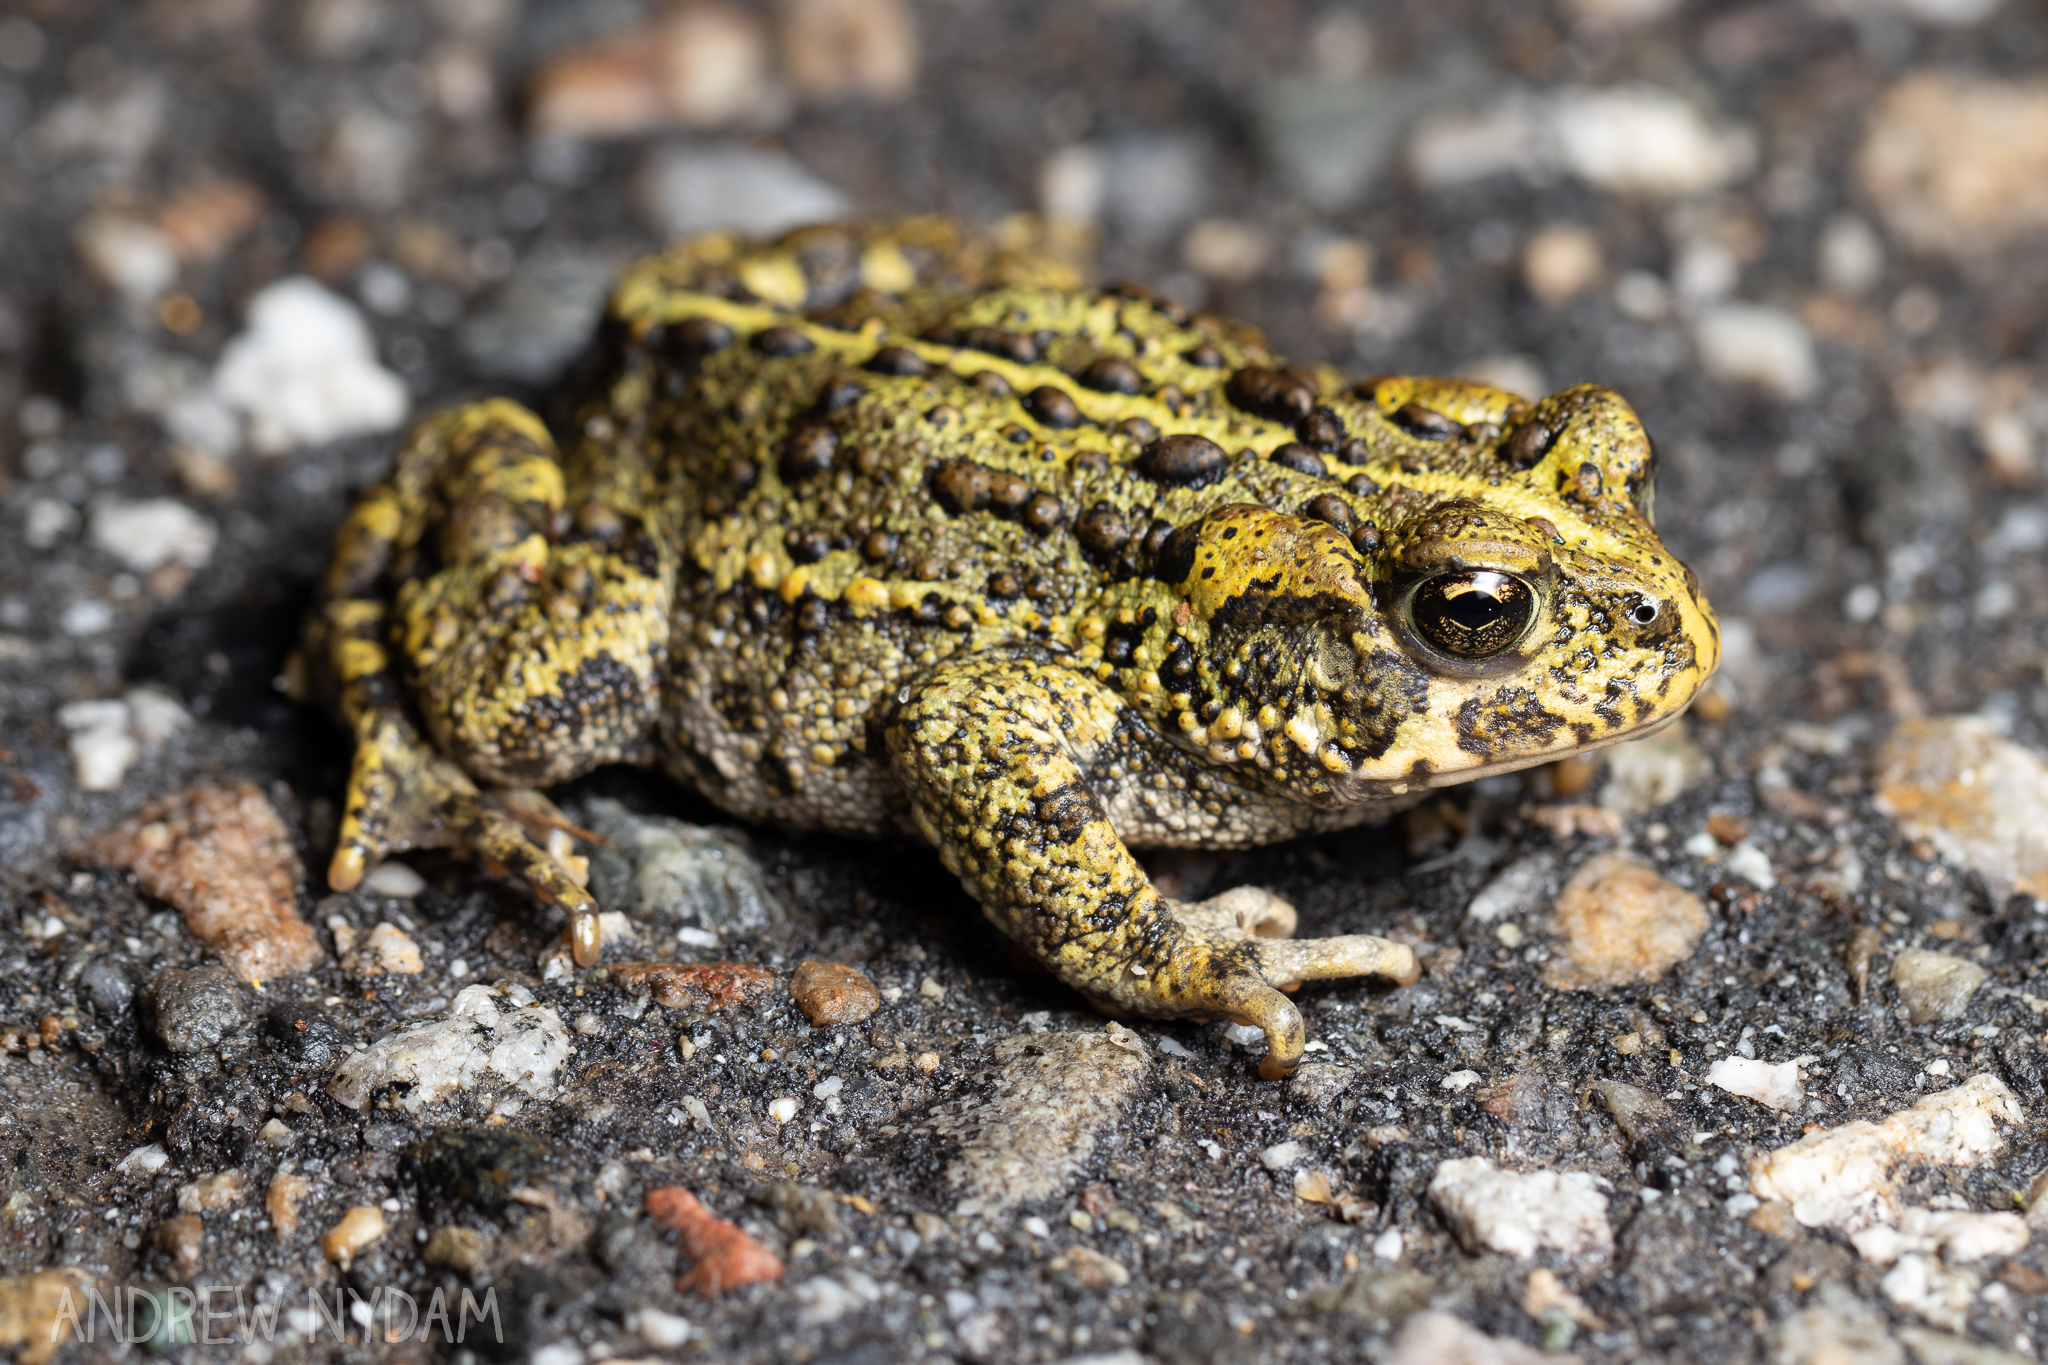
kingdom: Animalia
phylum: Chordata
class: Amphibia
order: Anura
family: Bufonidae
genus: Anaxyrus
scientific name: Anaxyrus boreas
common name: Western toad
